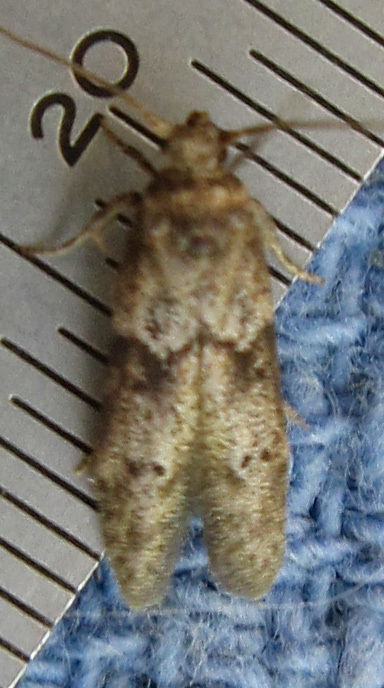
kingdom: Animalia
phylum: Arthropoda
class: Insecta
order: Lepidoptera
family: Blastobasidae
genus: Blastobasis
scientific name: Blastobasis glandulella
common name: Acorn moth
